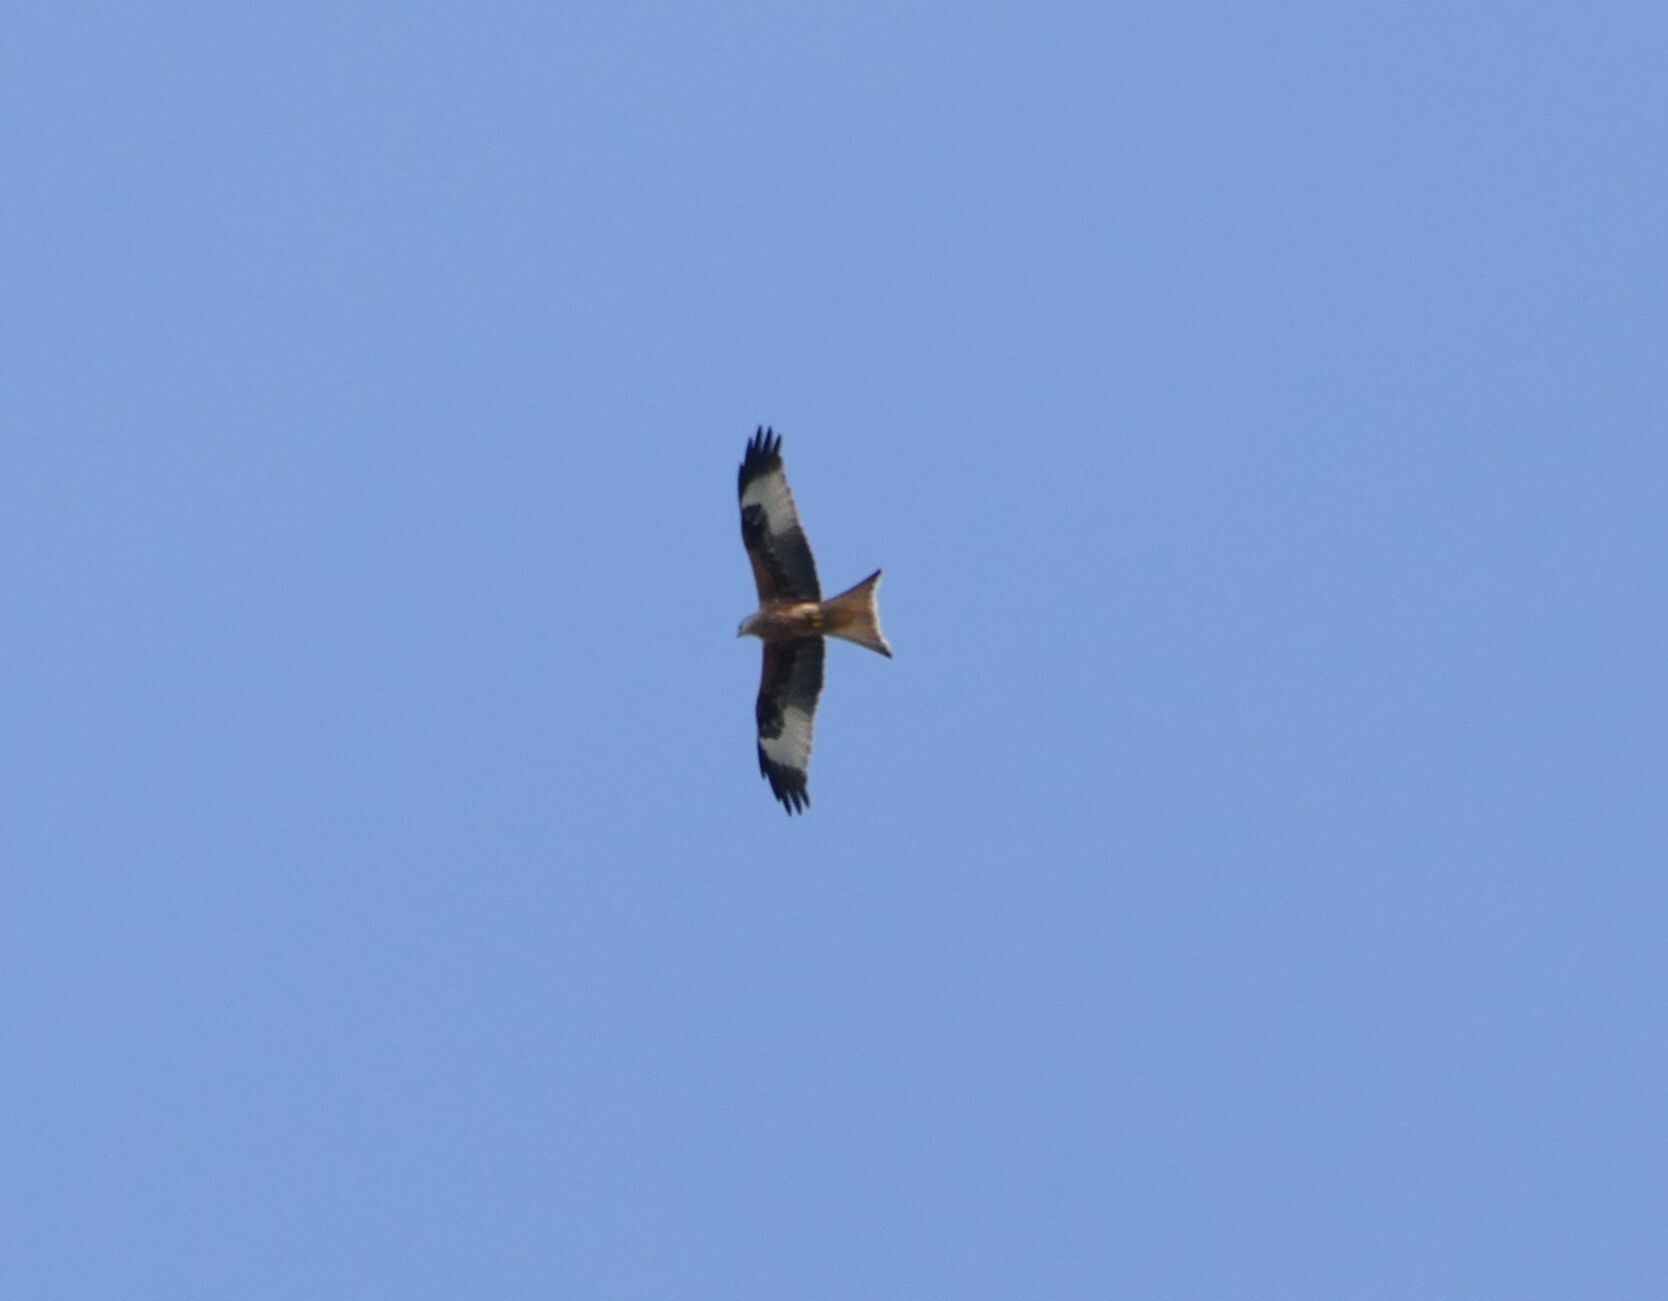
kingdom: Animalia
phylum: Chordata
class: Aves
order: Accipitriformes
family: Accipitridae
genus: Milvus
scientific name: Milvus milvus
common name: Red kite
